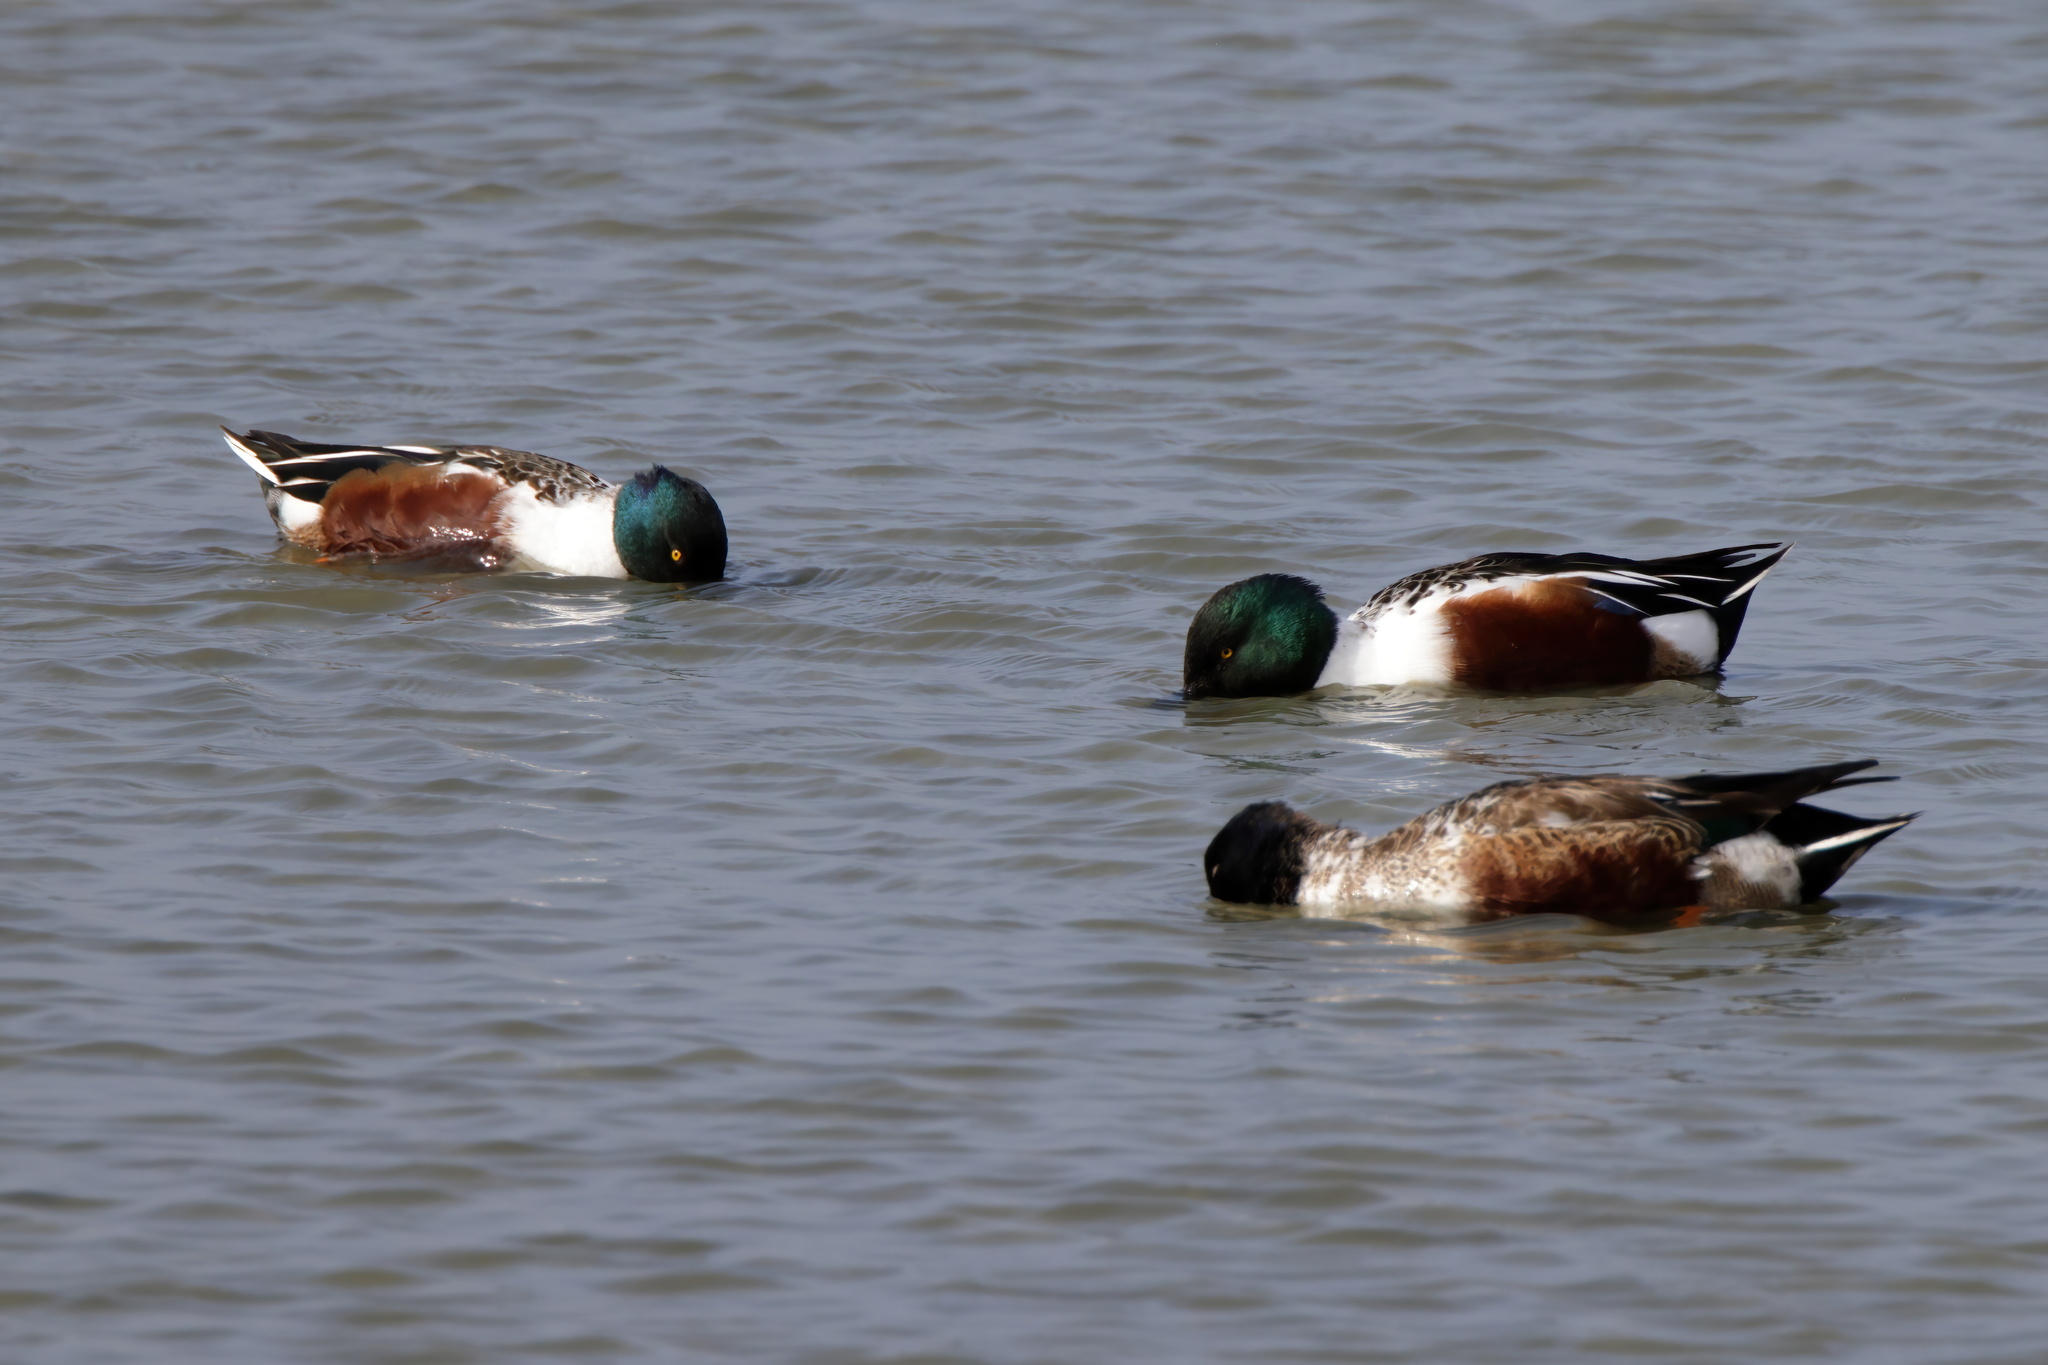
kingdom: Animalia
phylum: Chordata
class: Aves
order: Anseriformes
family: Anatidae
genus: Spatula
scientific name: Spatula clypeata
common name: Northern shoveler
